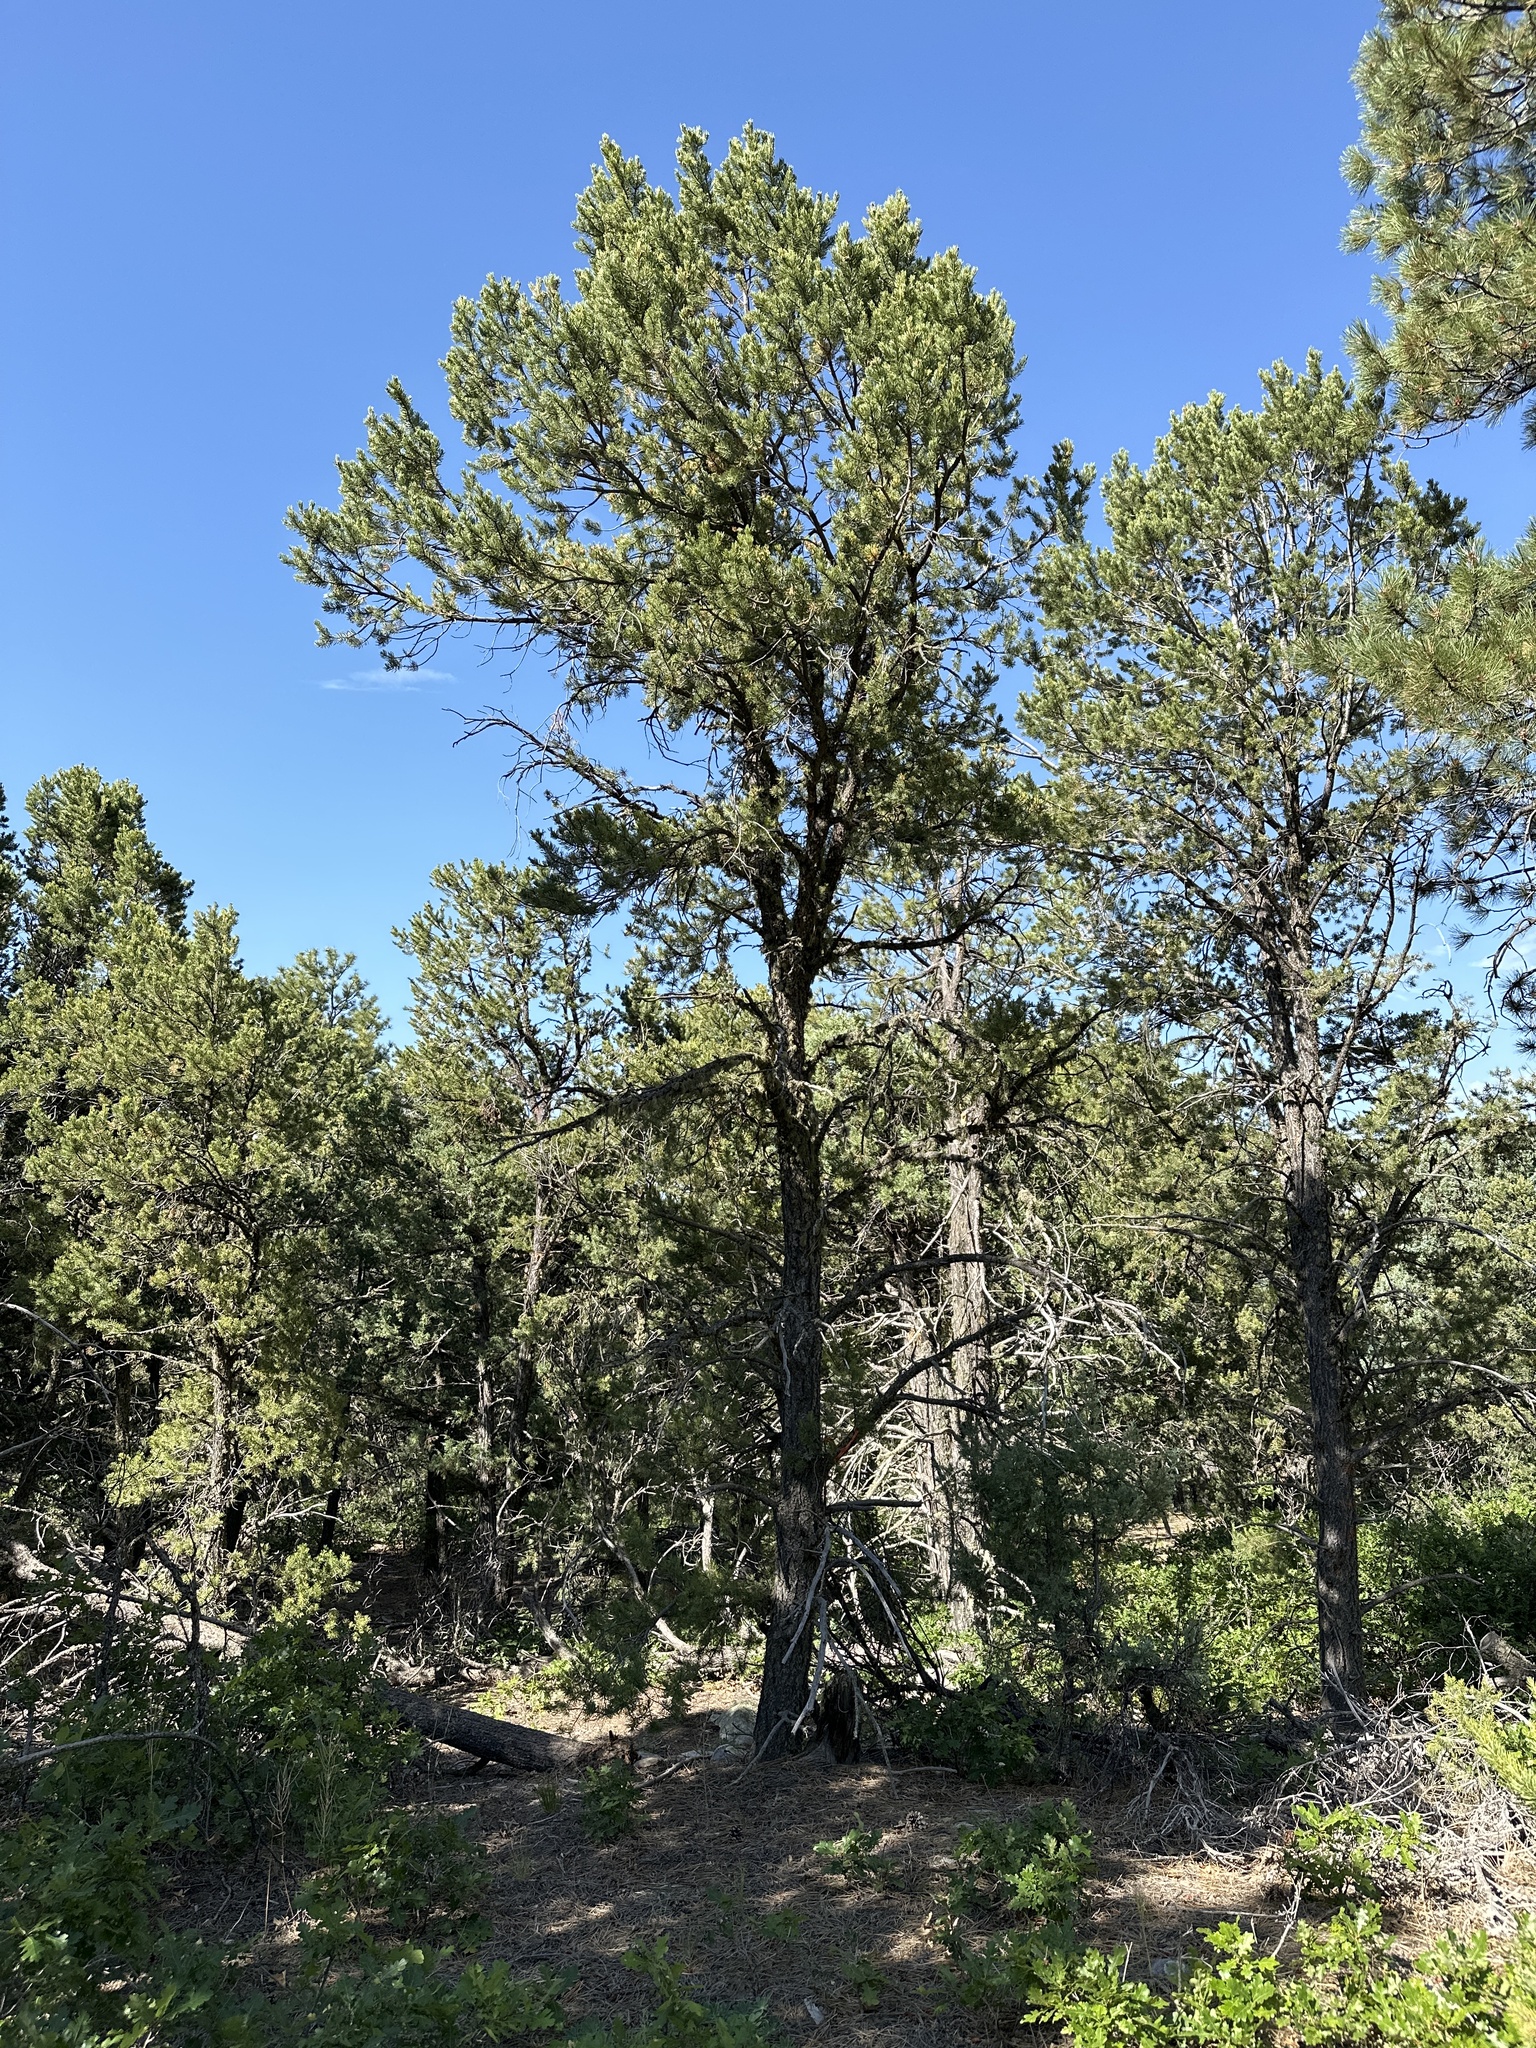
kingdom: Plantae
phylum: Tracheophyta
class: Pinopsida
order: Pinales
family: Pinaceae
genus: Pinus
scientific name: Pinus edulis
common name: Colorado pinyon
